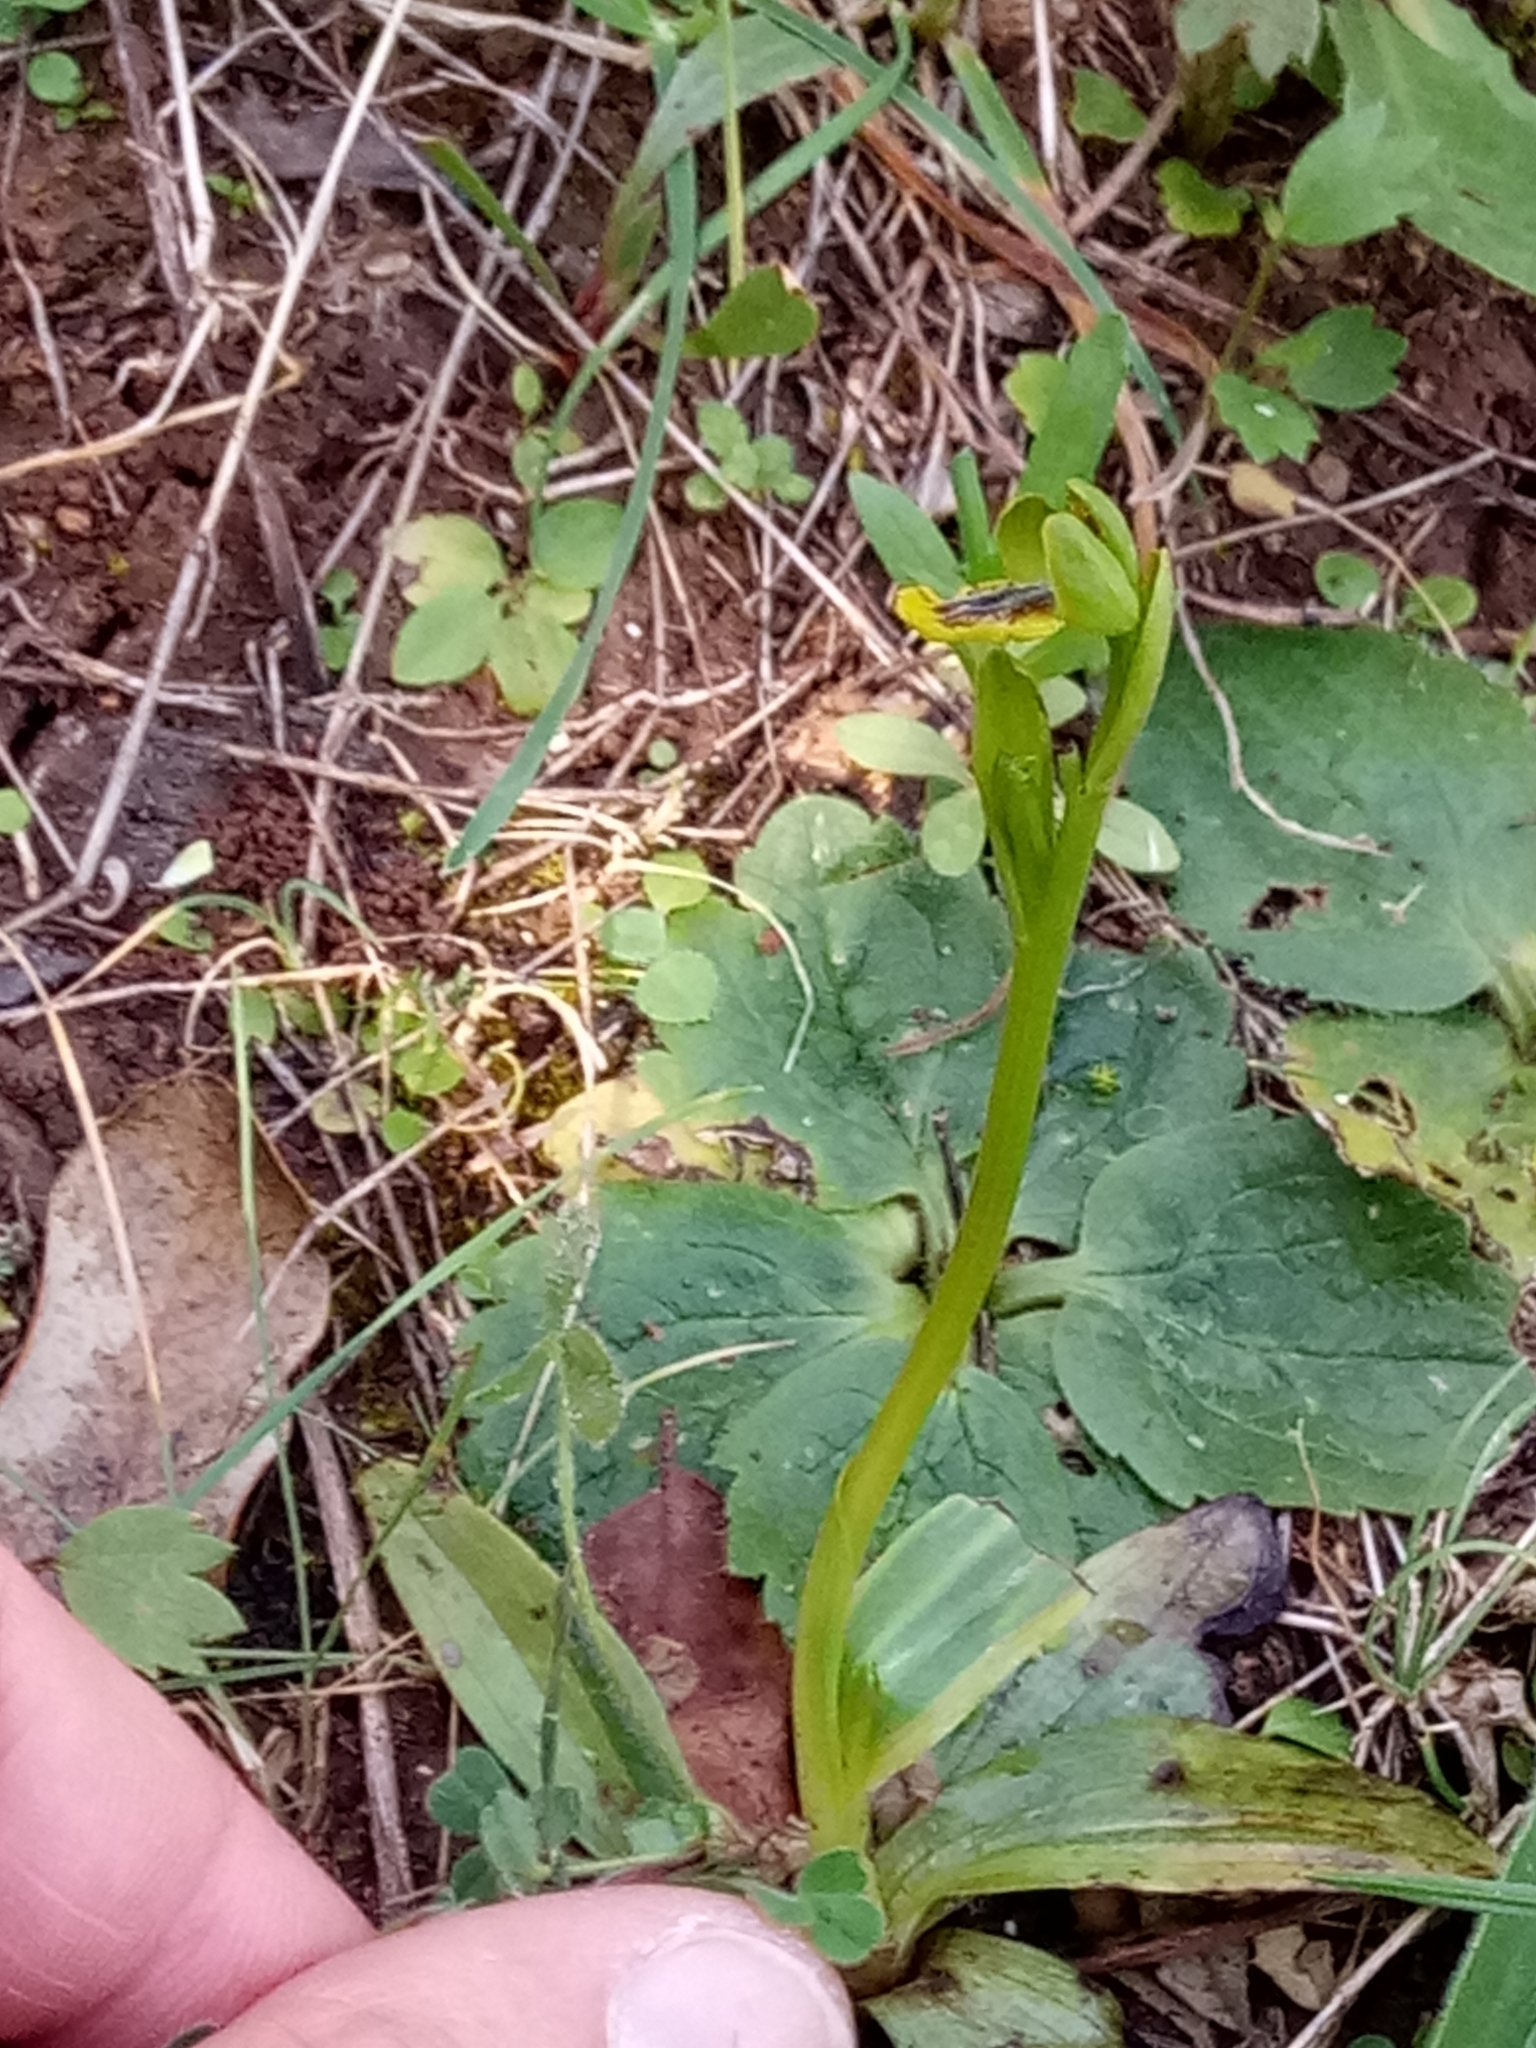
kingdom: Plantae
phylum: Tracheophyta
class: Liliopsida
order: Asparagales
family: Orchidaceae
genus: Ophrys
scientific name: Ophrys lutea
